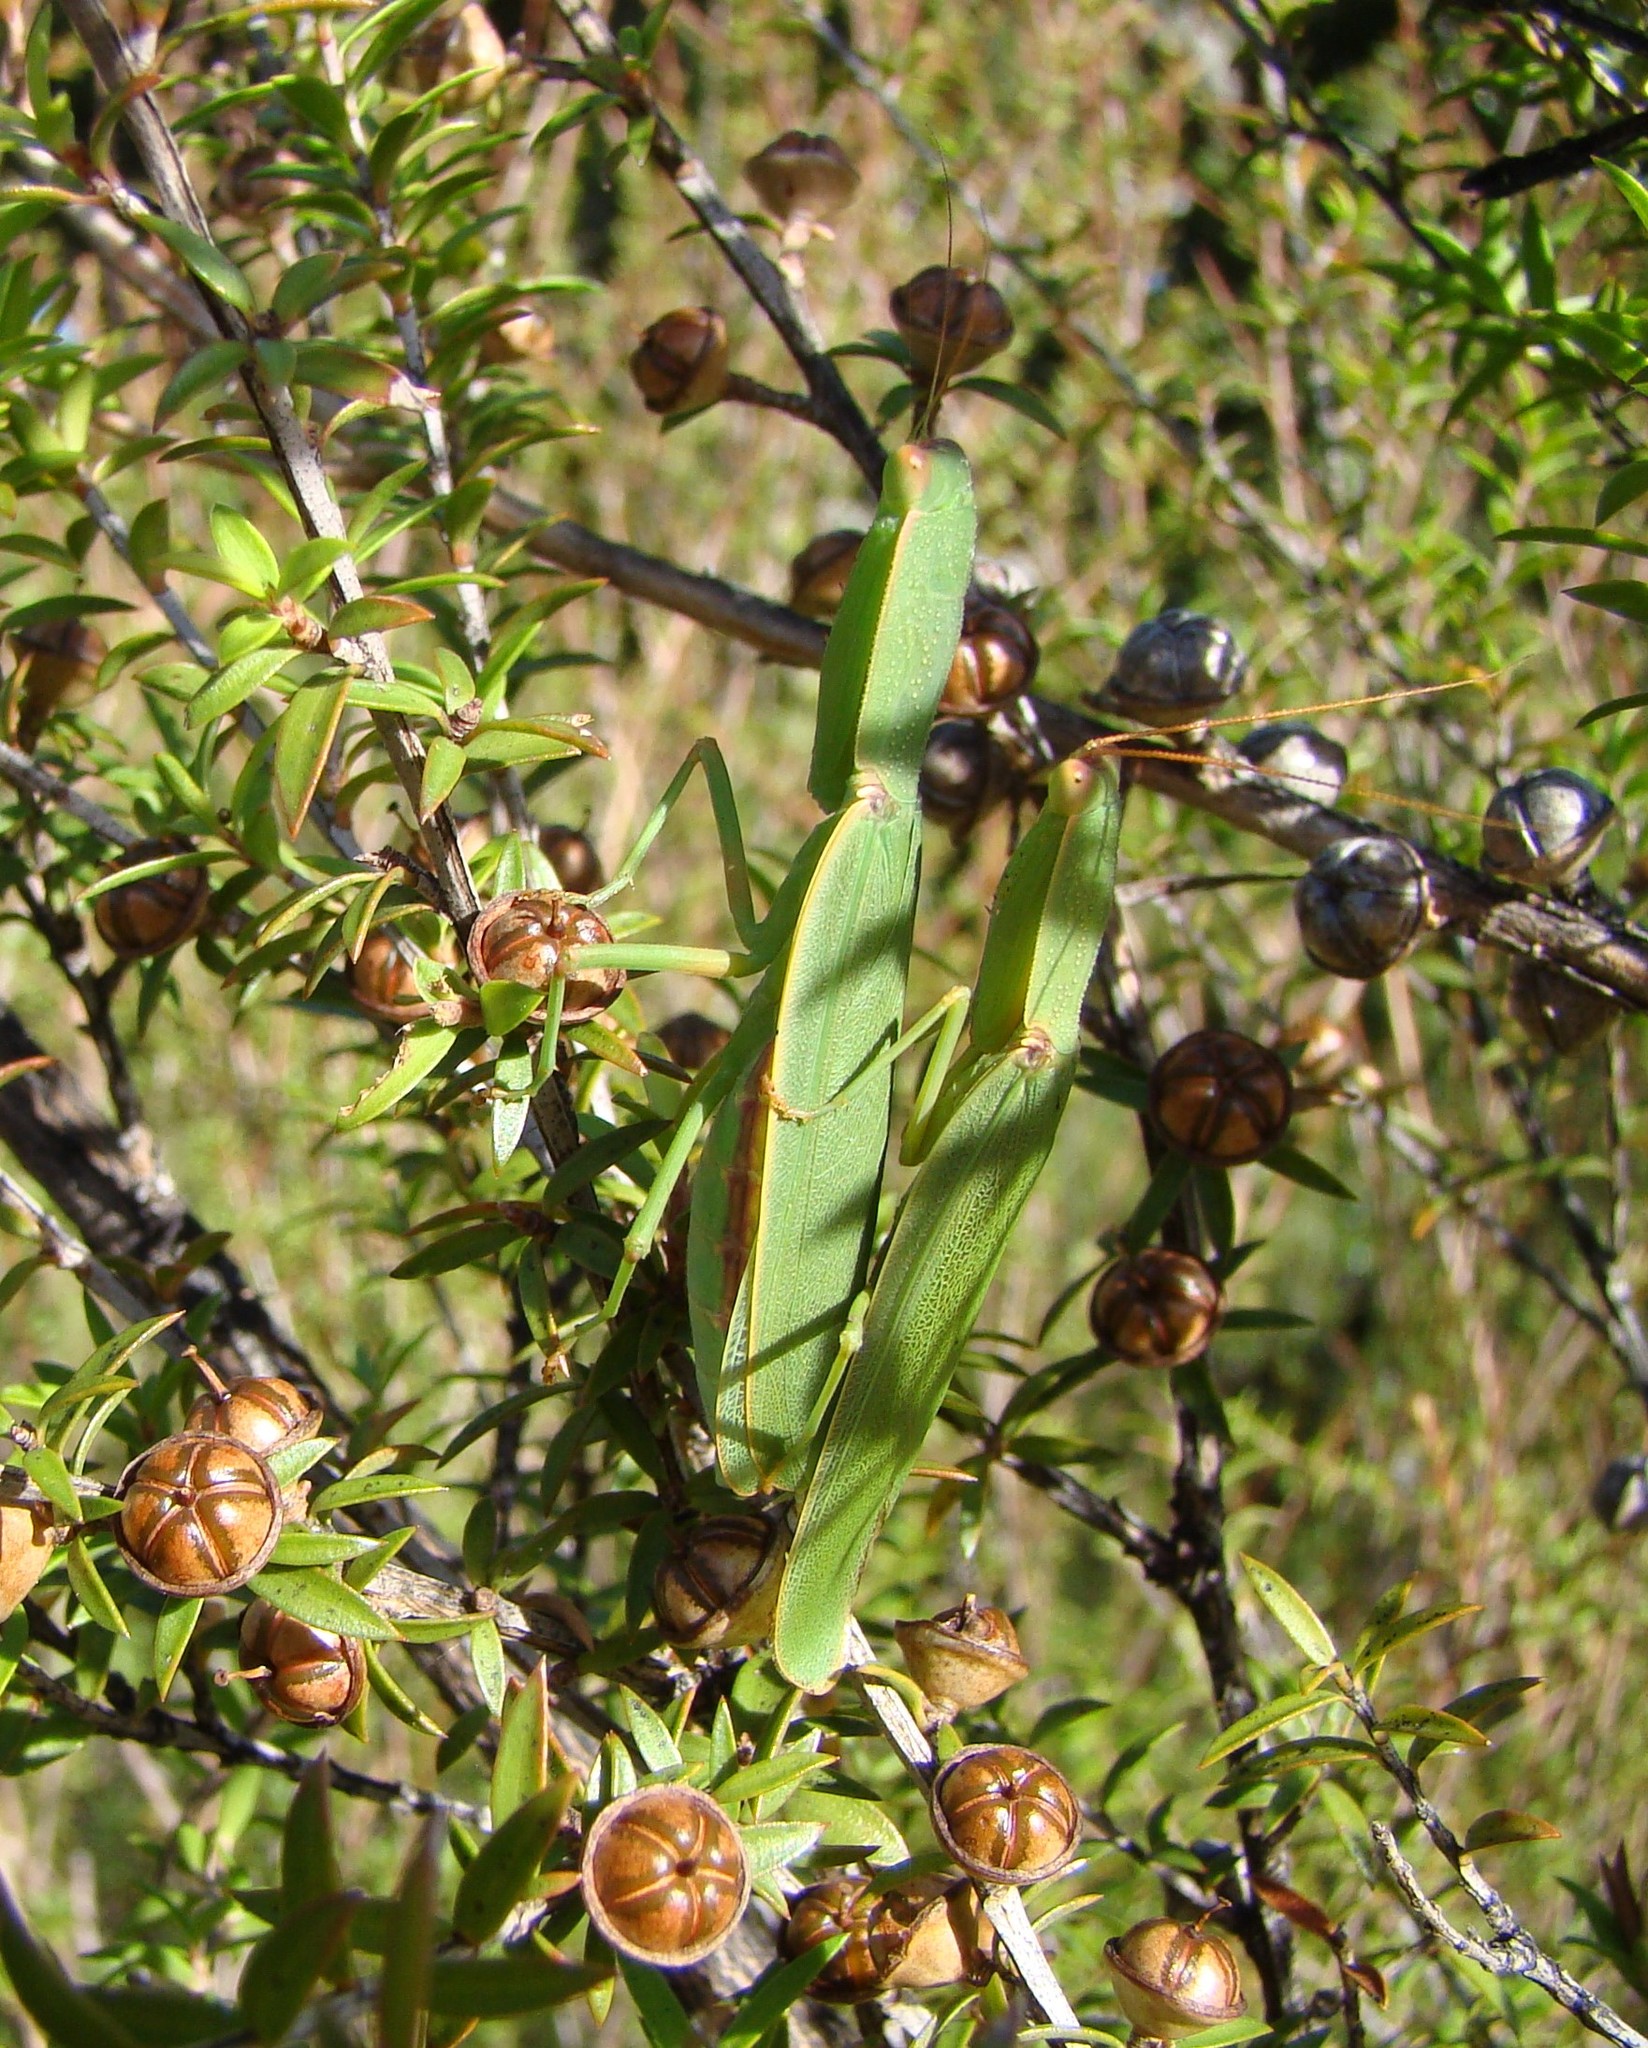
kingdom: Animalia
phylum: Arthropoda
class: Insecta
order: Mantodea
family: Mantidae
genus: Orthodera
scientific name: Orthodera novaezealandiae
